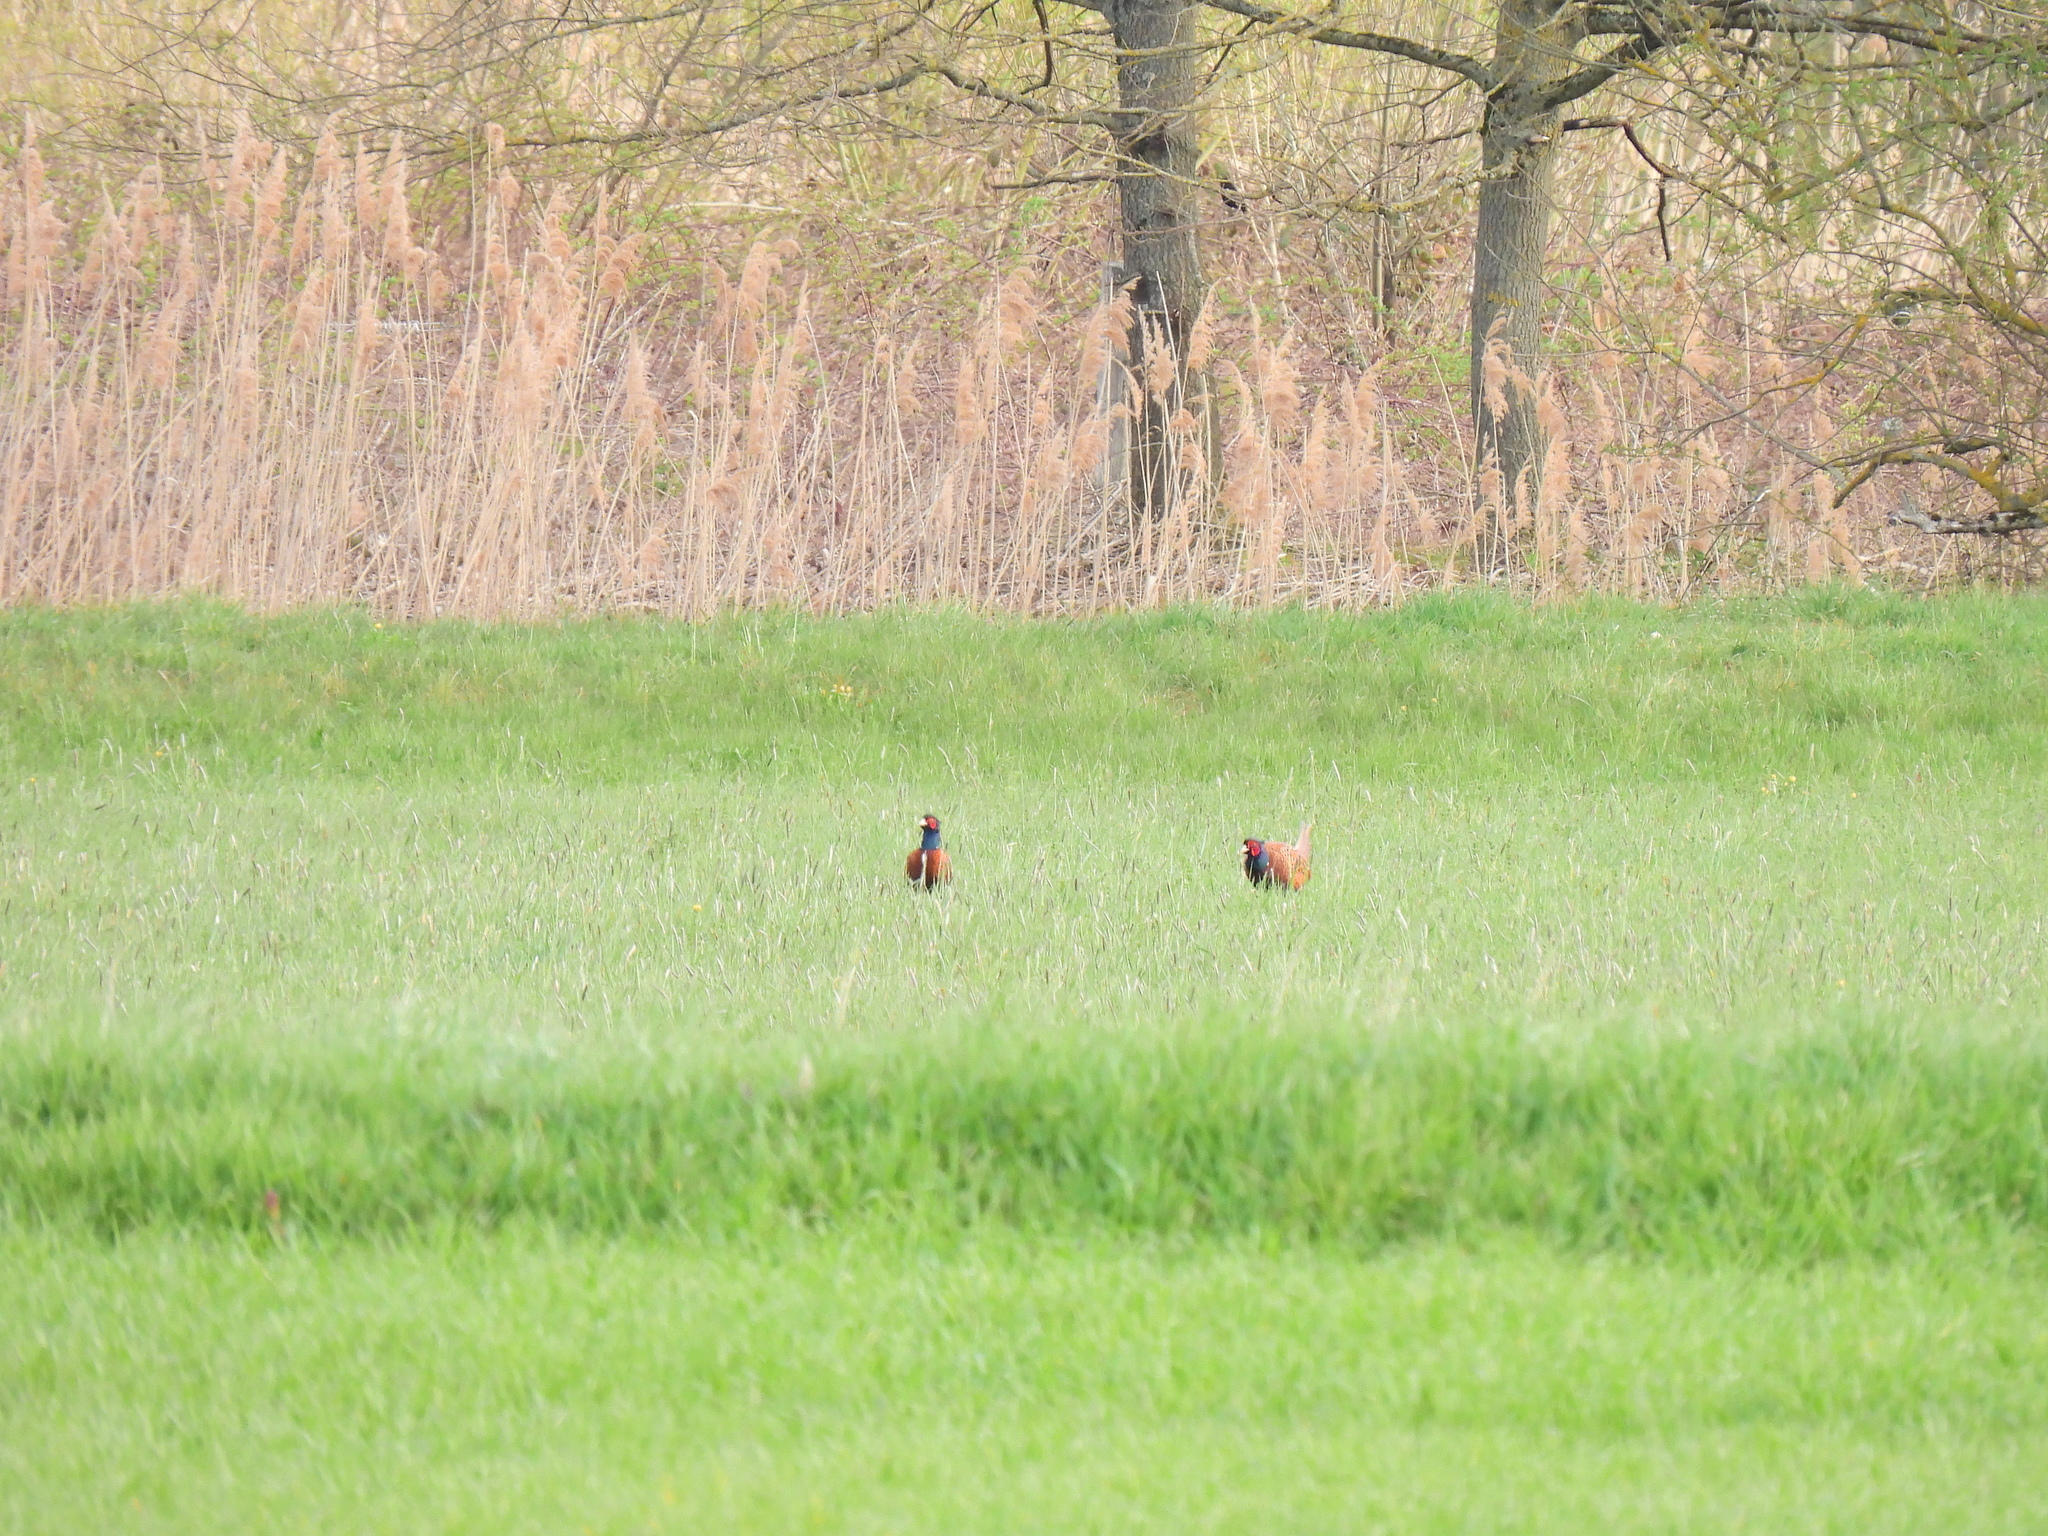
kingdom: Animalia
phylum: Chordata
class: Aves
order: Galliformes
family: Phasianidae
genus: Phasianus
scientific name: Phasianus colchicus
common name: Common pheasant
